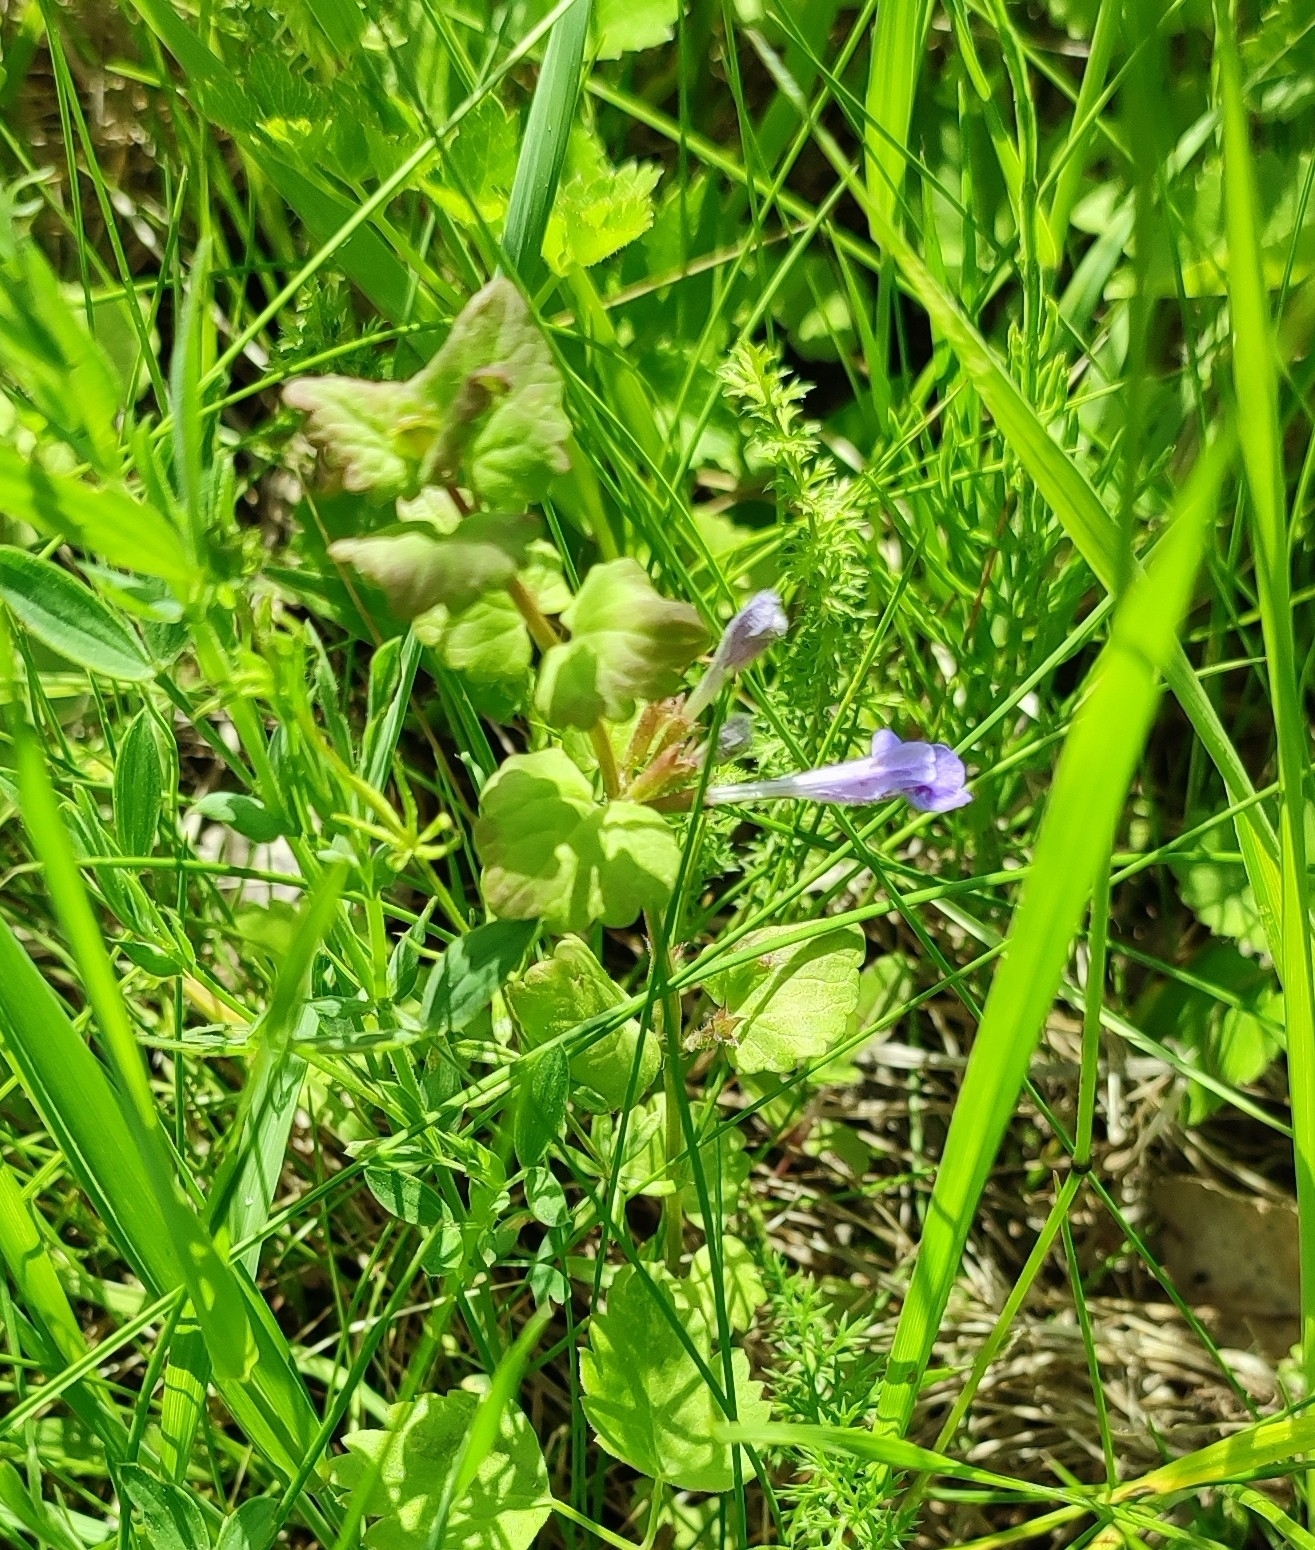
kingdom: Plantae
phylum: Tracheophyta
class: Magnoliopsida
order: Lamiales
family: Lamiaceae
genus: Glechoma
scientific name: Glechoma hederacea
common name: Ground ivy
